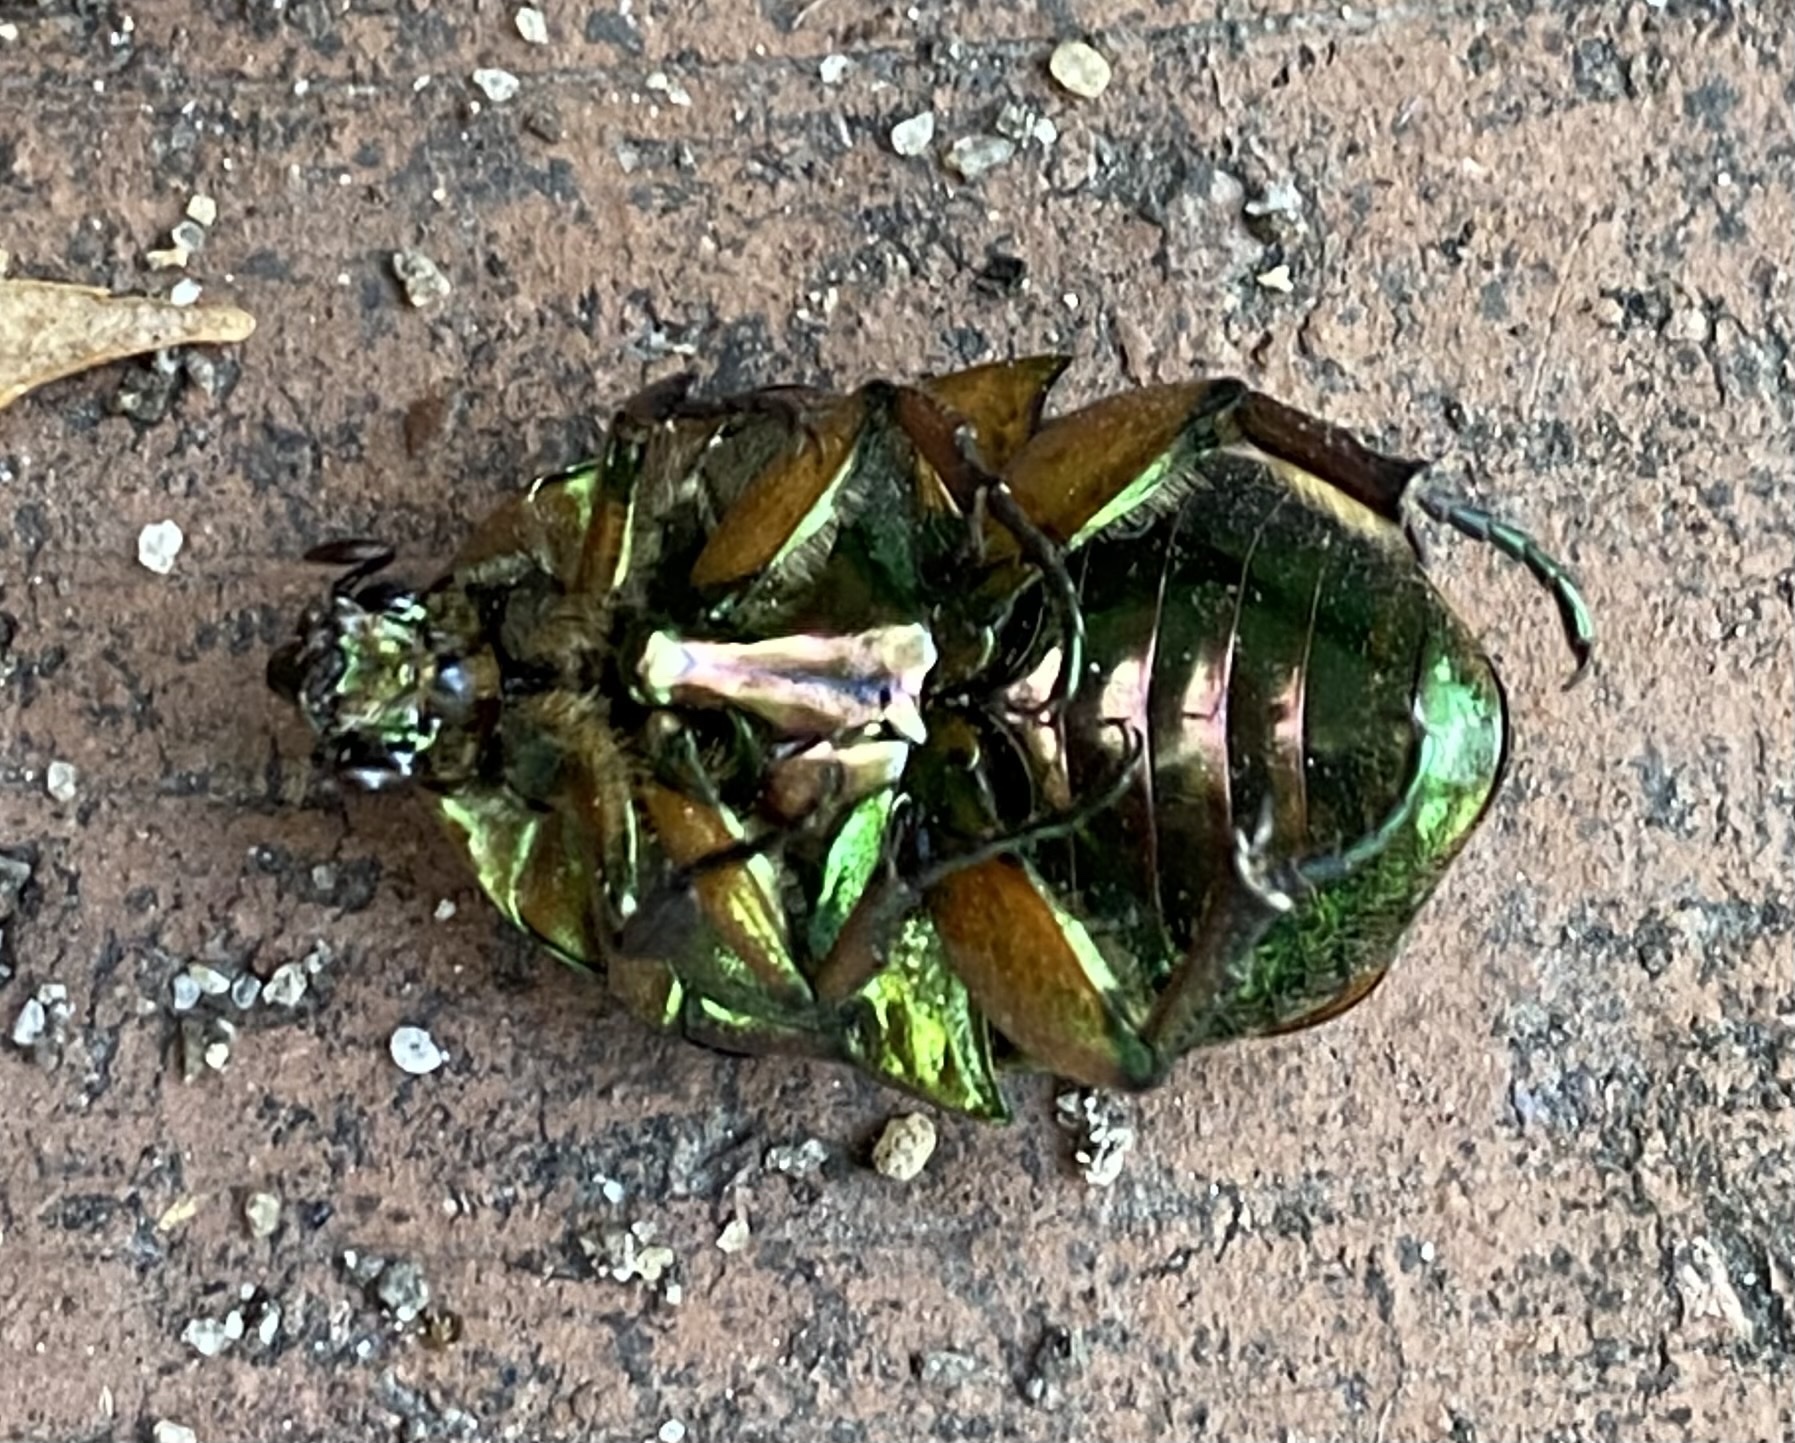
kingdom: Animalia
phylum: Arthropoda
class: Insecta
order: Coleoptera
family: Scarabaeidae
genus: Cotinis
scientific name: Cotinis nitida
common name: Common green june beetle
